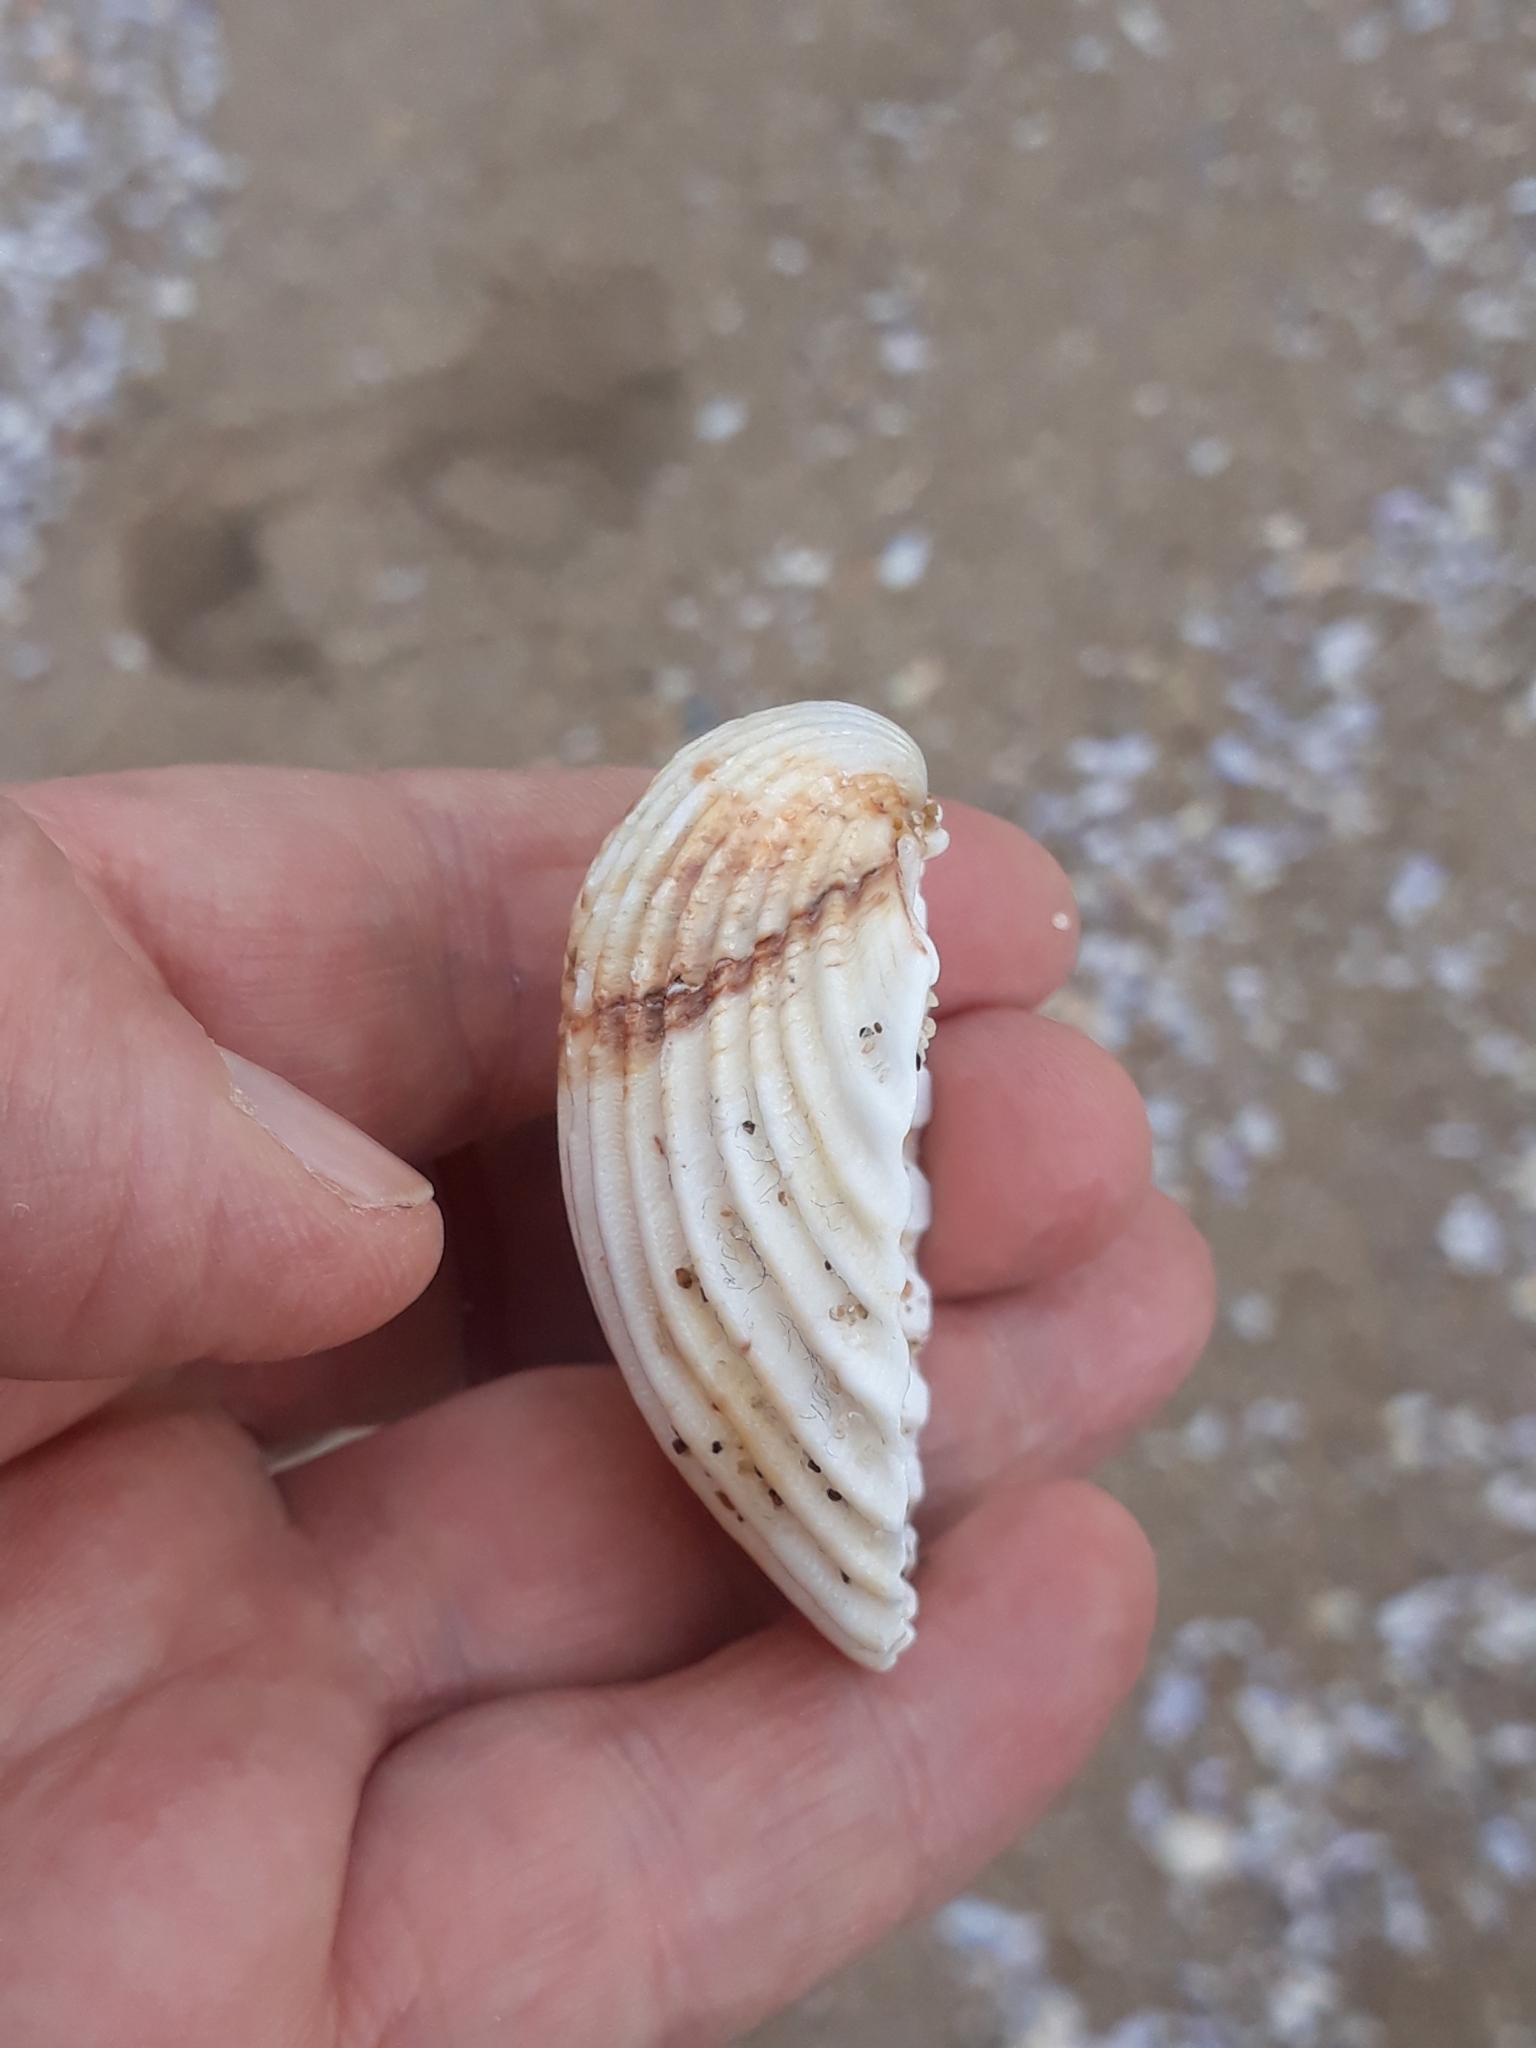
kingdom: Animalia
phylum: Mollusca
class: Bivalvia
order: Cardiida
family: Cardiidae
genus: Acanthocardia
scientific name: Acanthocardia tuberculata
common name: Rough cockle
